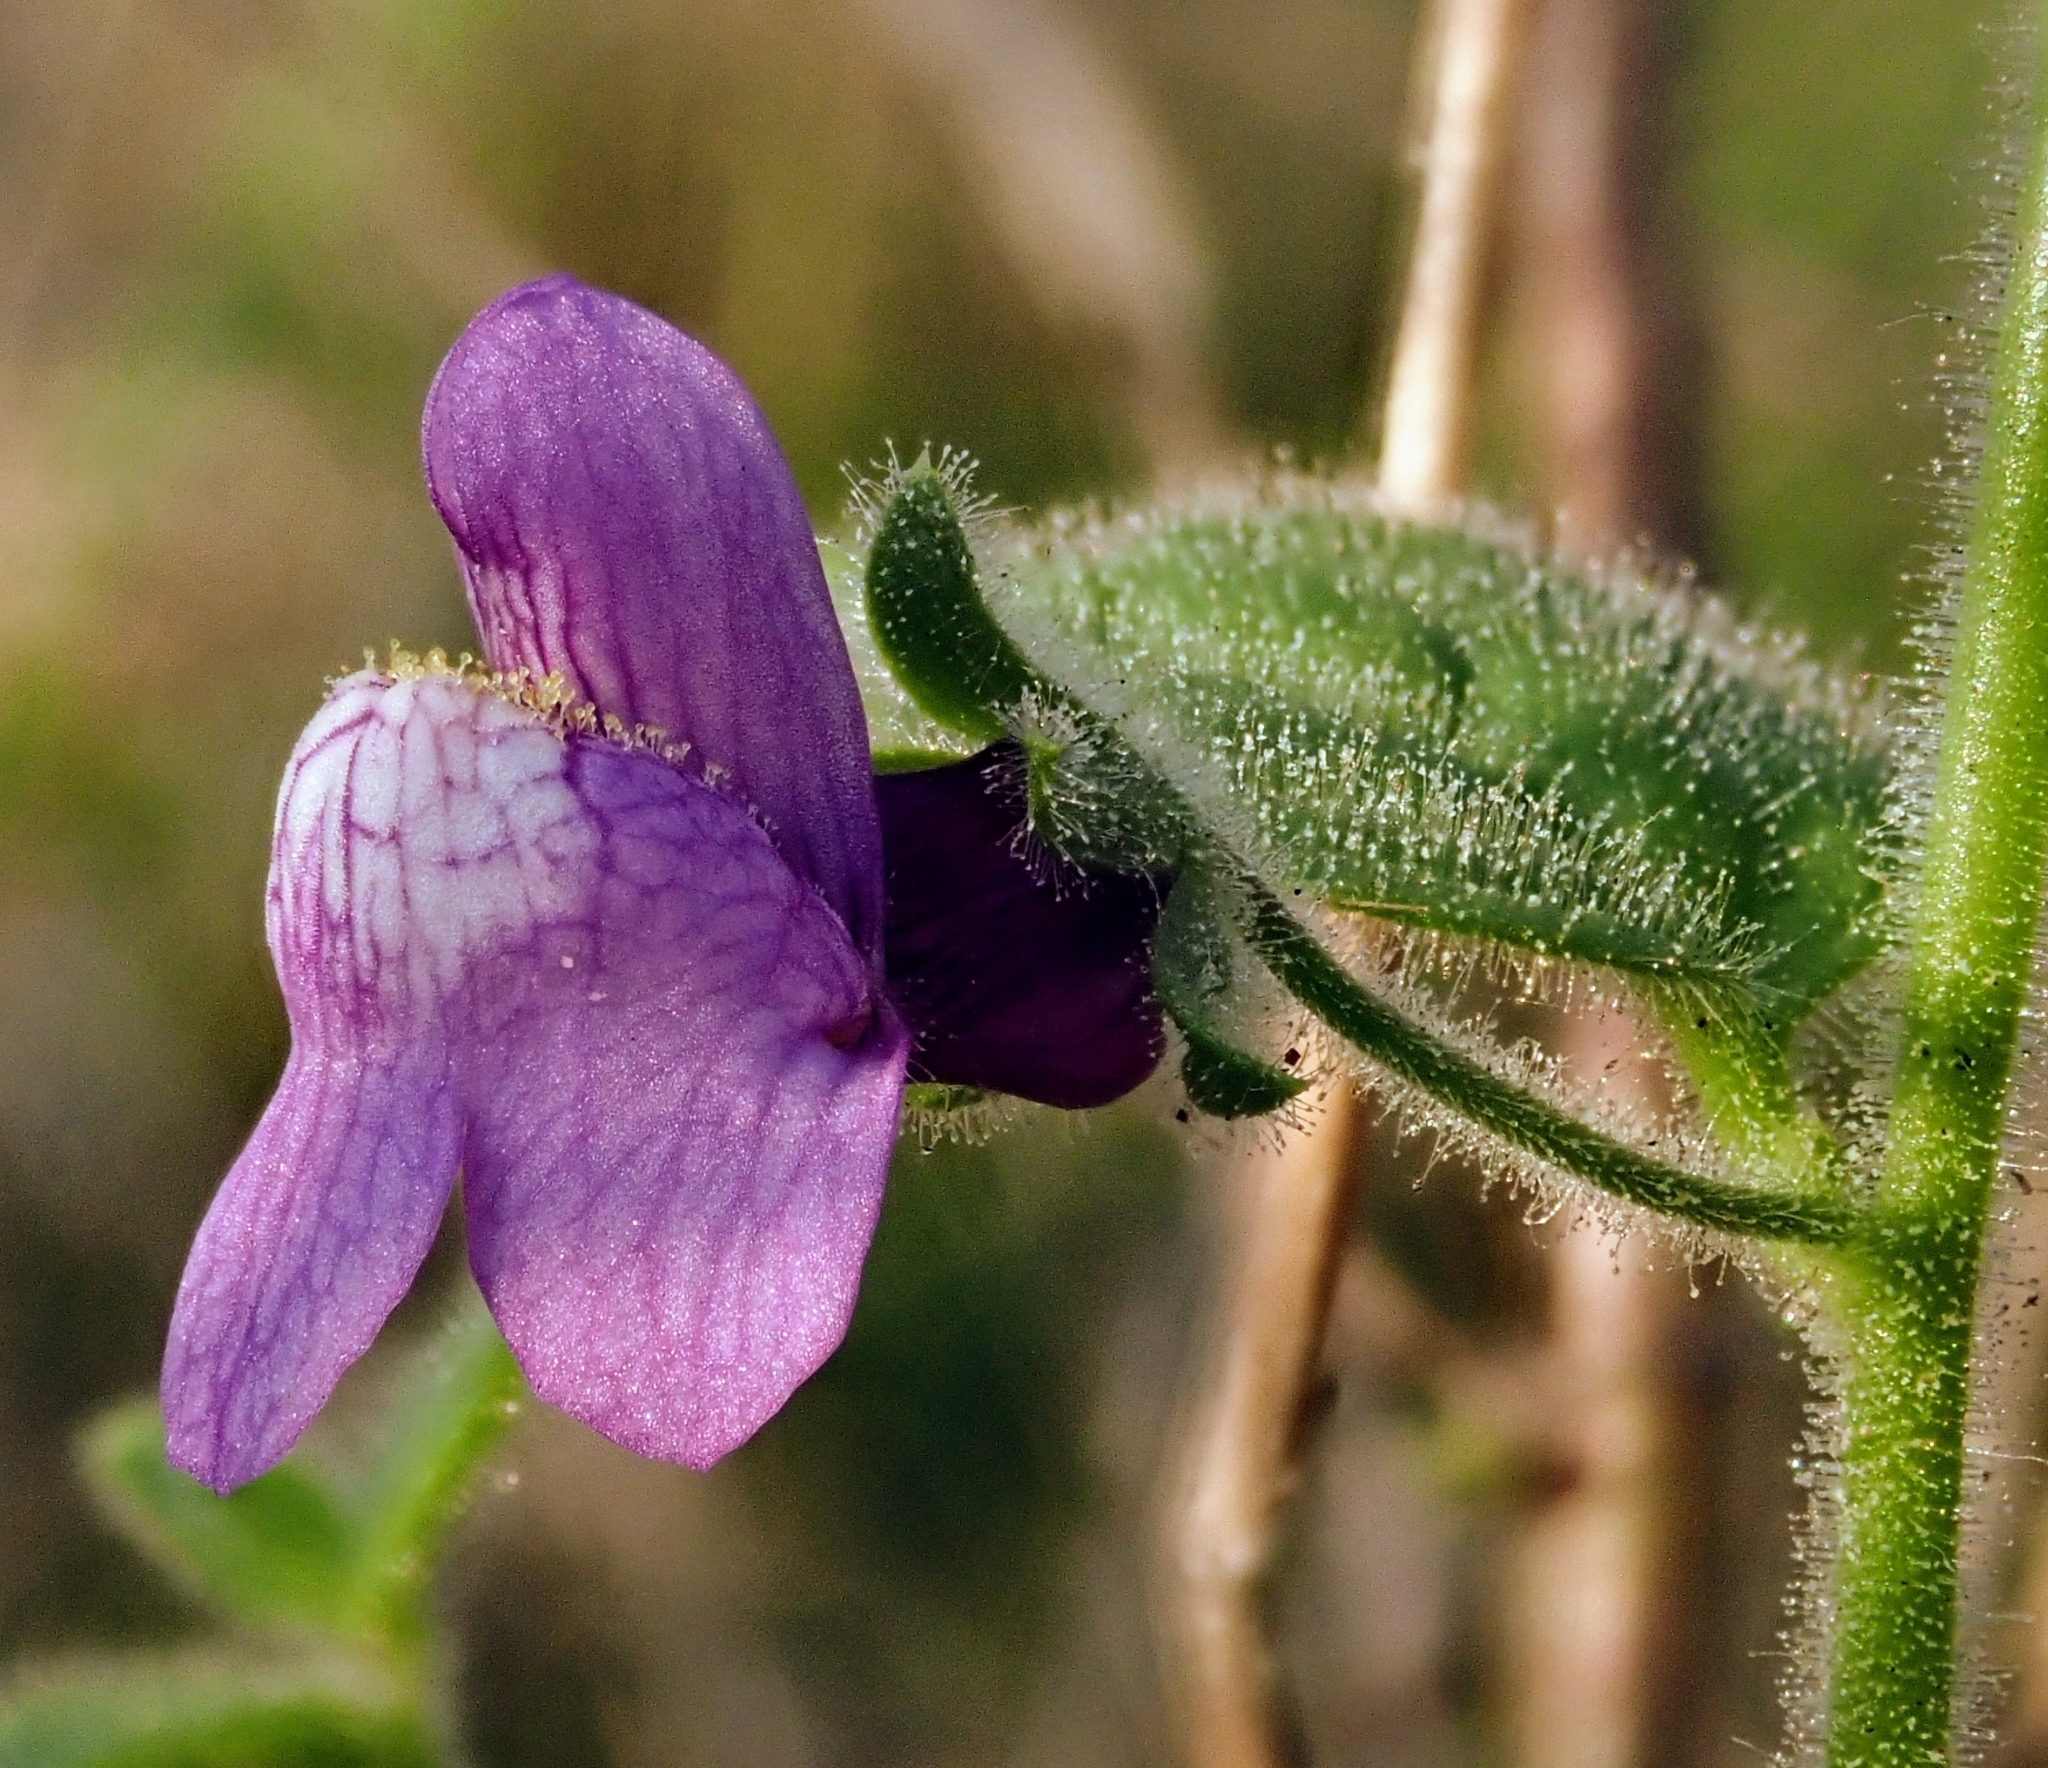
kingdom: Plantae
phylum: Tracheophyta
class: Magnoliopsida
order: Lamiales
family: Plantaginaceae
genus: Sairocarpus
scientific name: Sairocarpus nuttallianus
